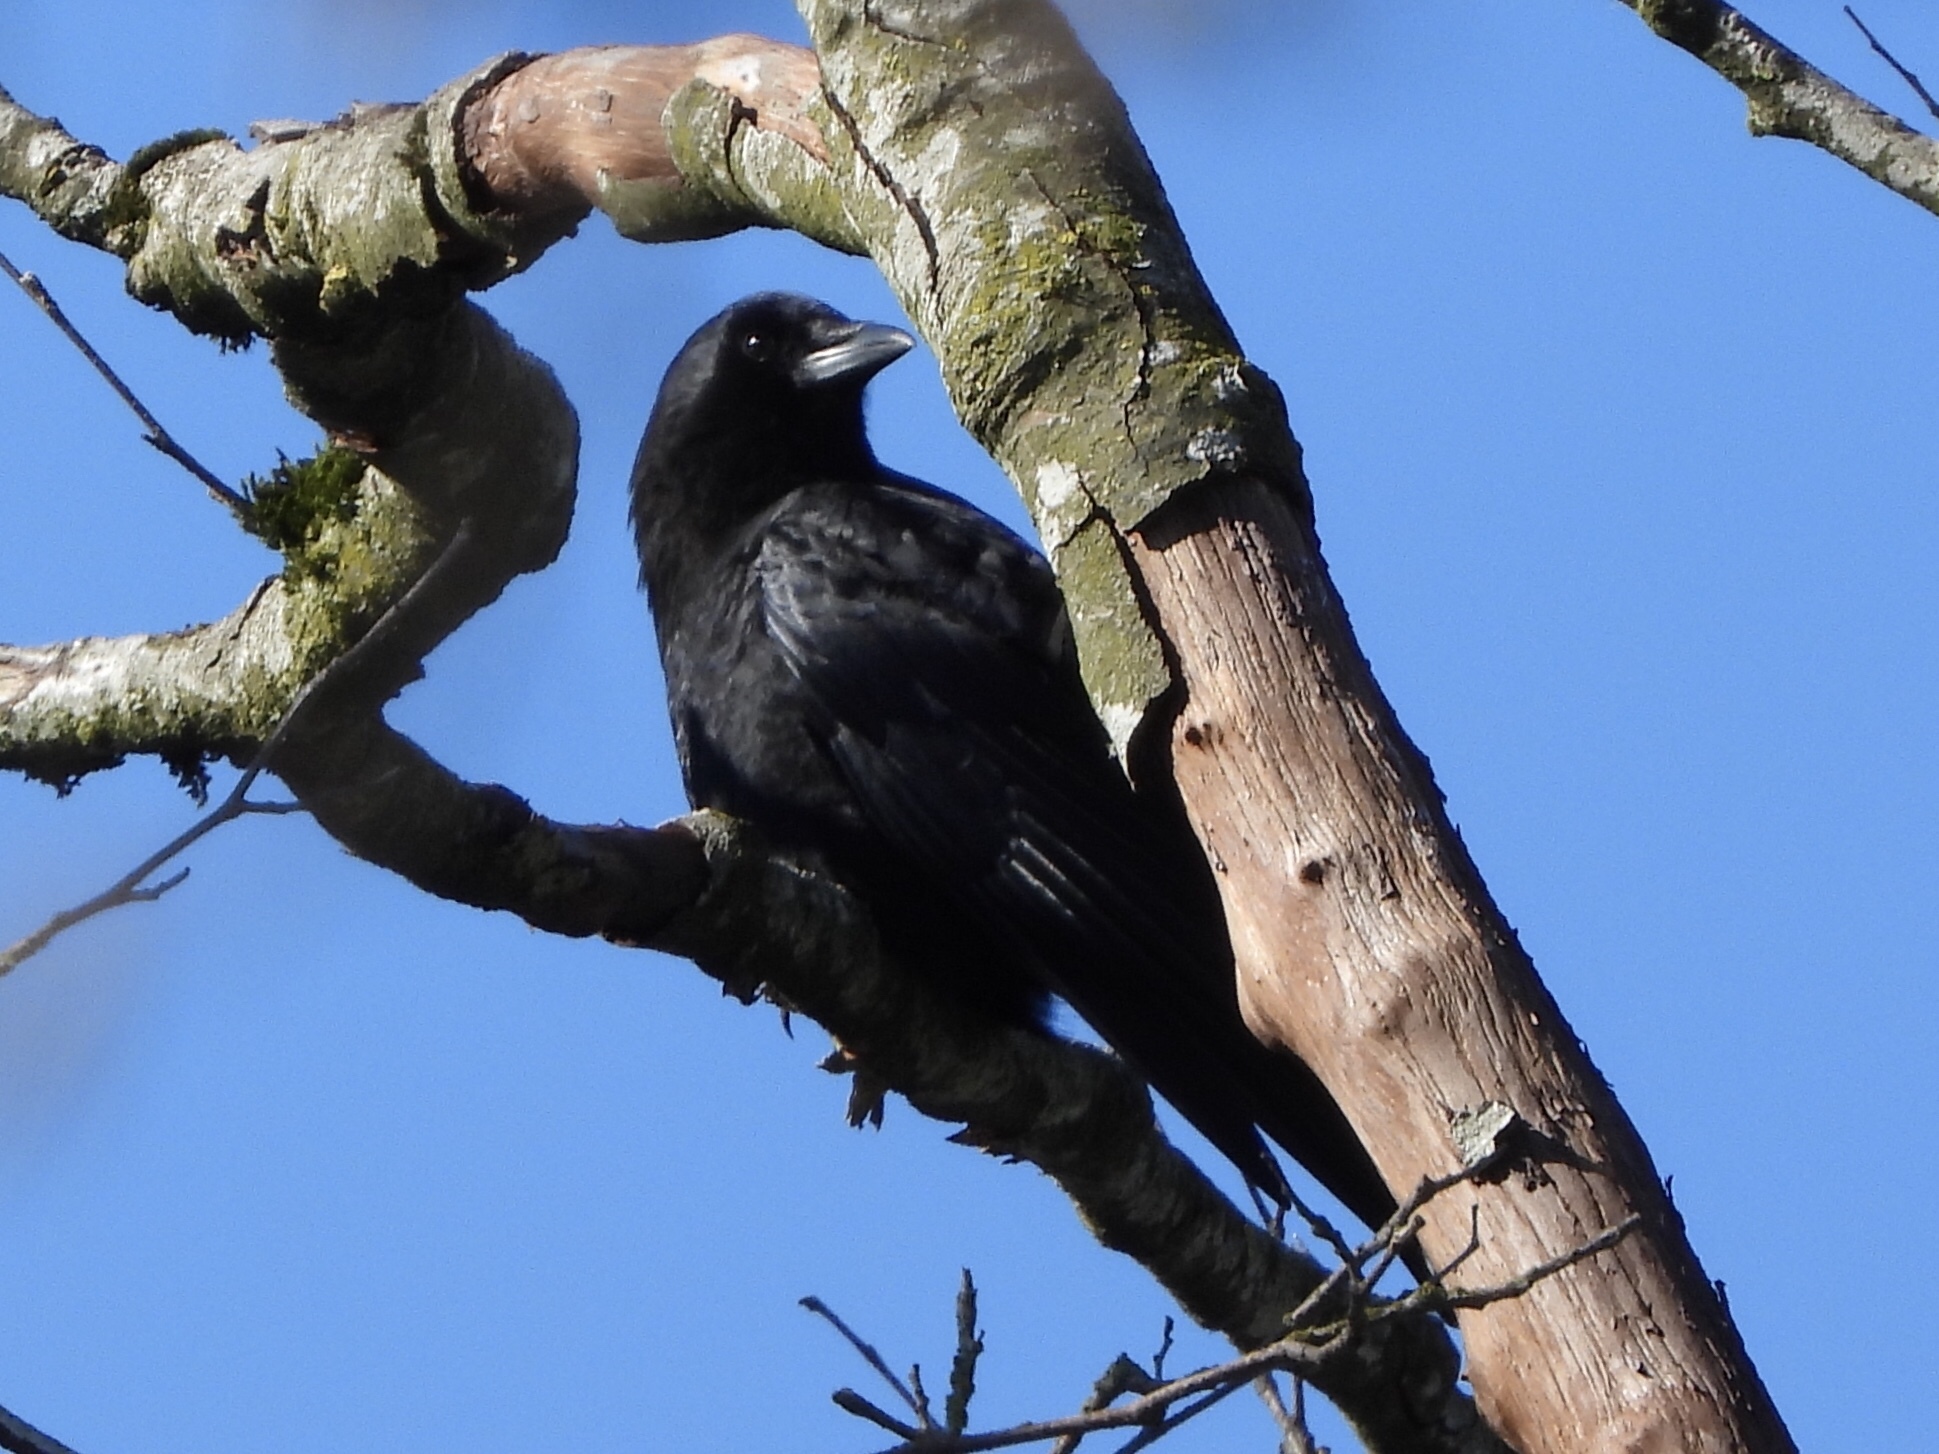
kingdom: Animalia
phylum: Chordata
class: Aves
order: Passeriformes
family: Corvidae
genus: Corvus
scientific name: Corvus brachyrhynchos
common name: American crow
